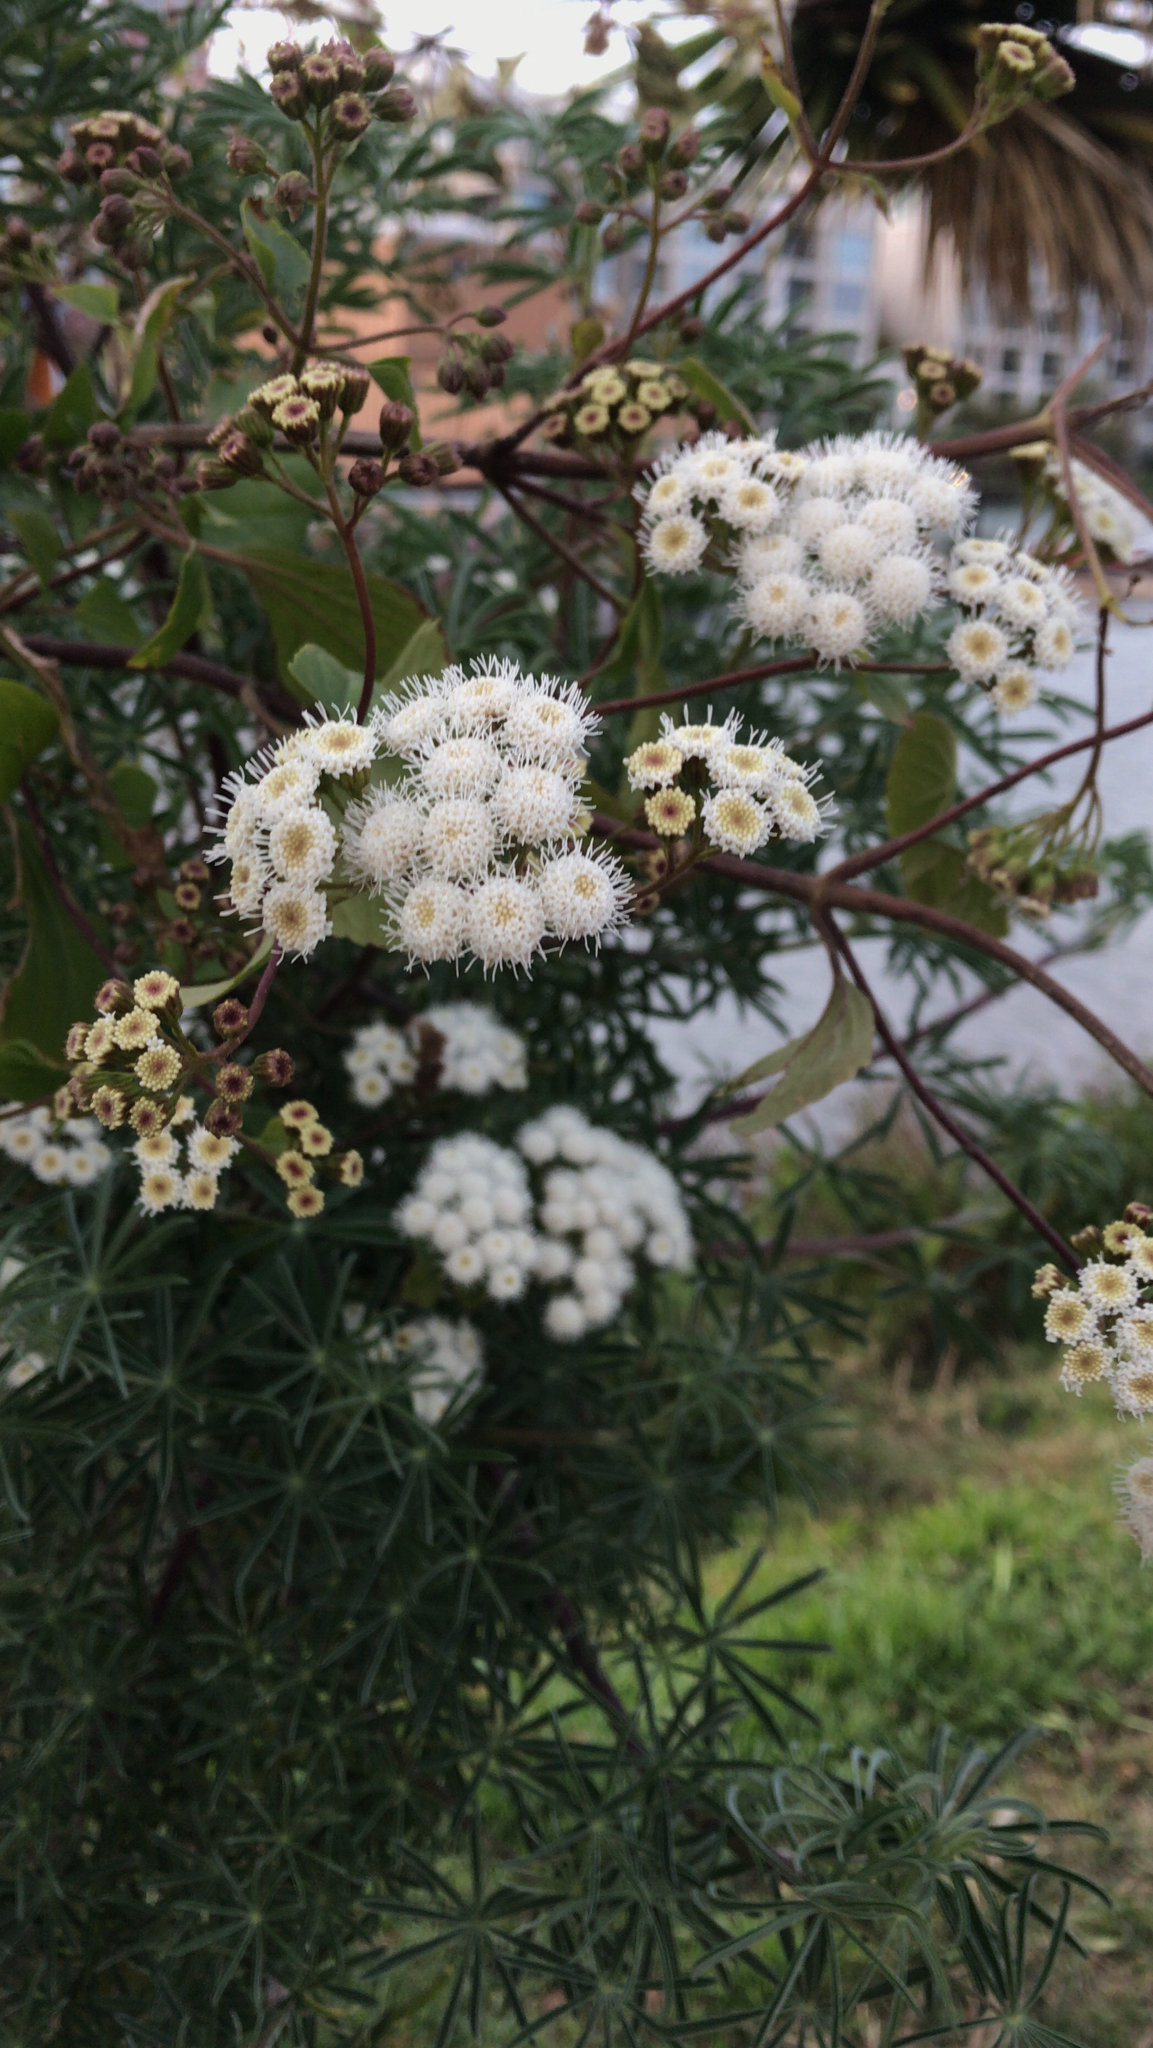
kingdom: Plantae
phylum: Tracheophyta
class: Magnoliopsida
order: Asterales
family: Asteraceae
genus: Ageratina
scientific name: Ageratina adenophora
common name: Sticky snakeroot
